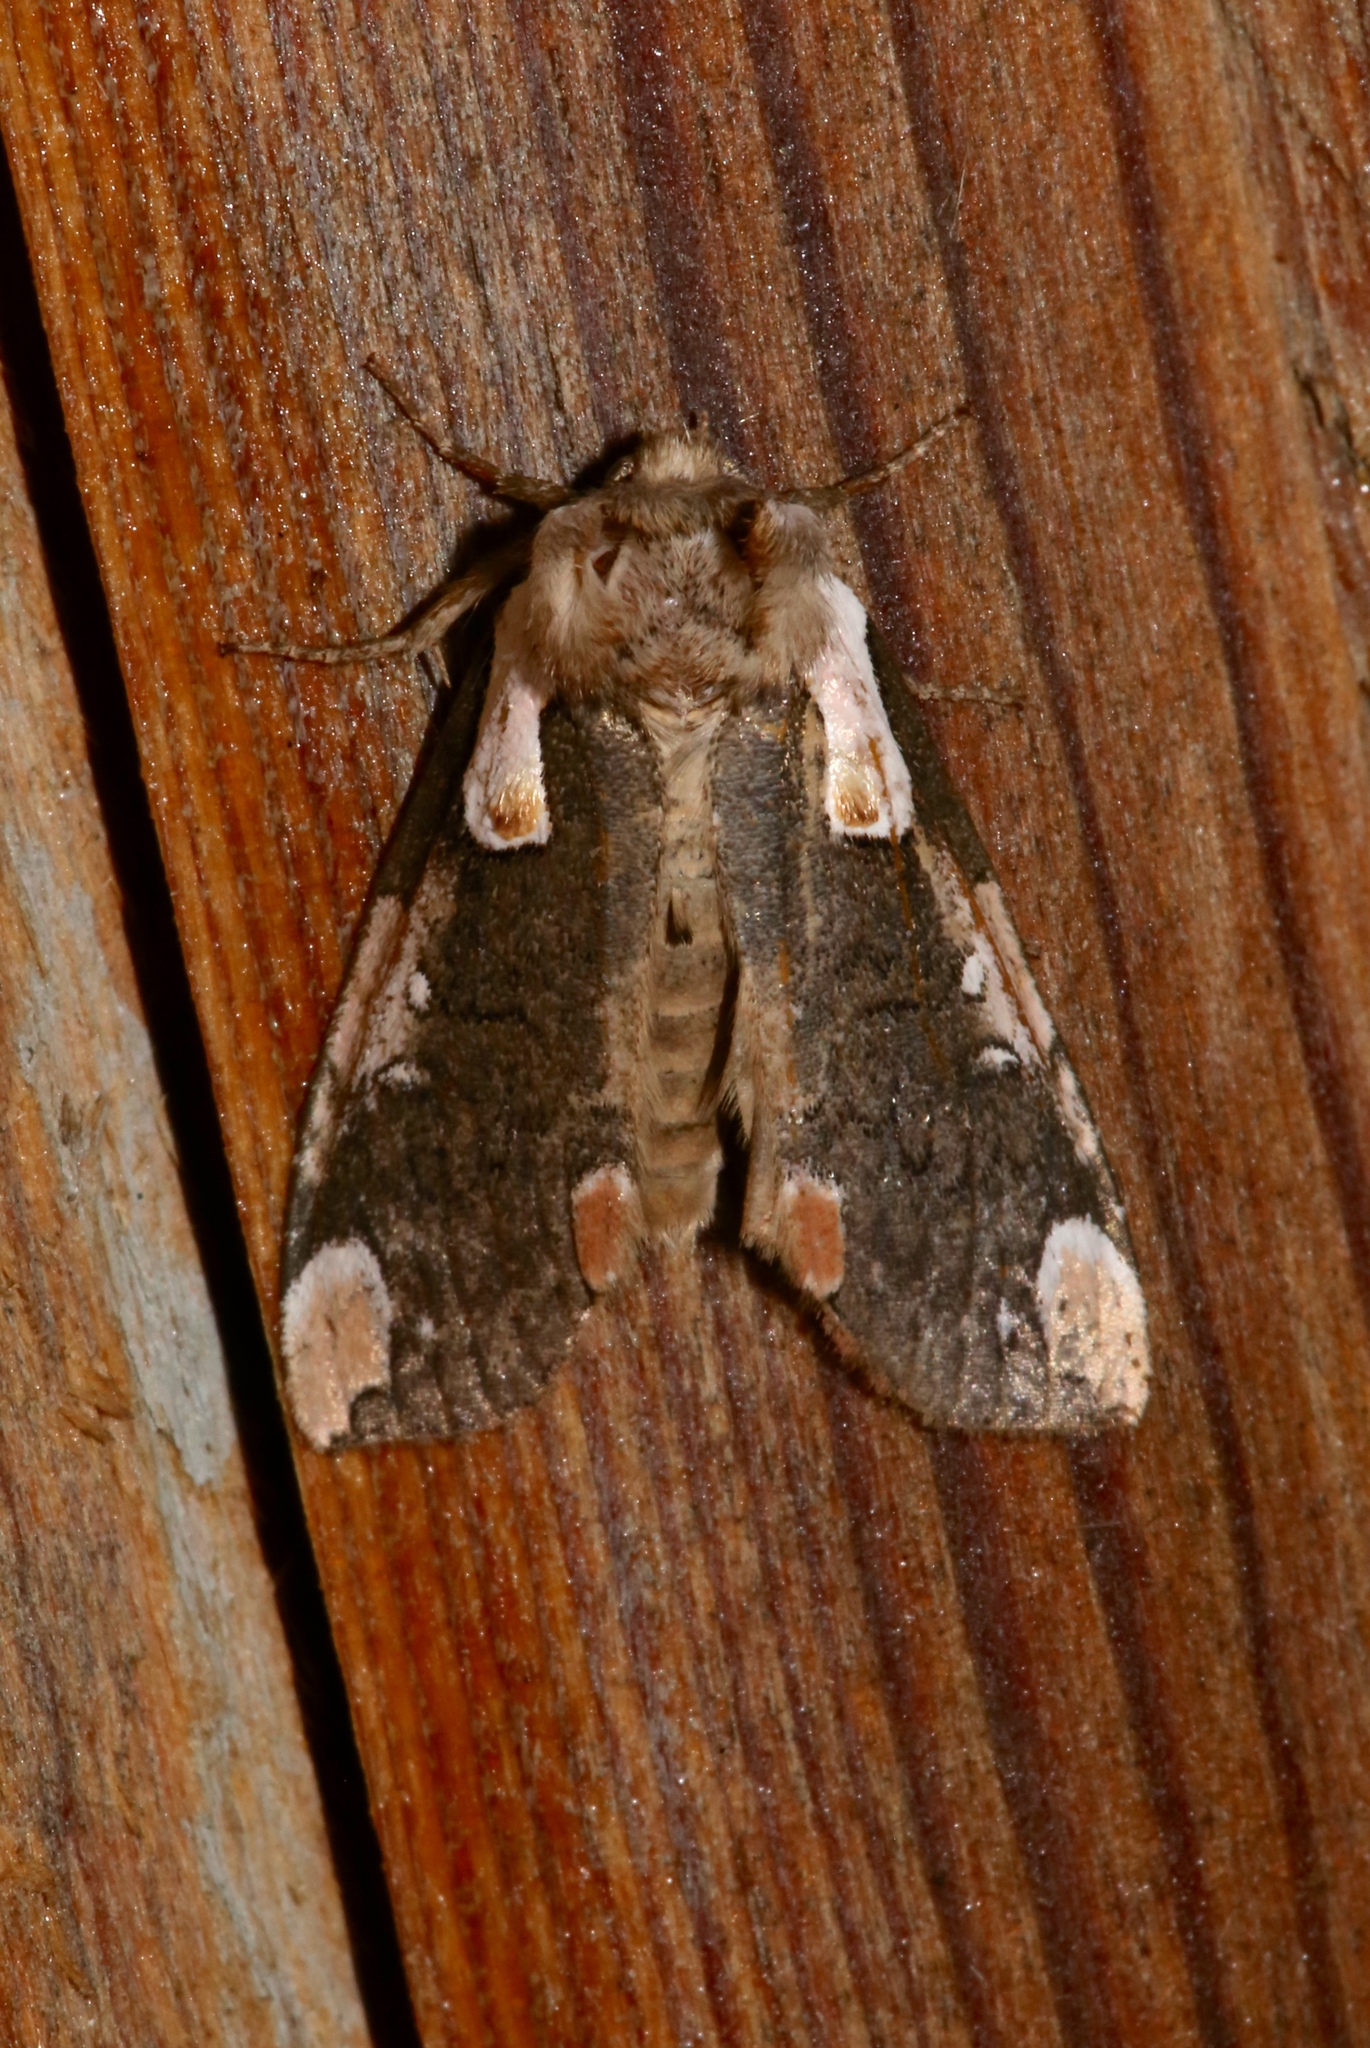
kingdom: Animalia
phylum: Arthropoda
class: Insecta
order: Lepidoptera
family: Drepanidae
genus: Euthyatira
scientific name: Euthyatira pudens
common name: Dogwood thyatirid moth
